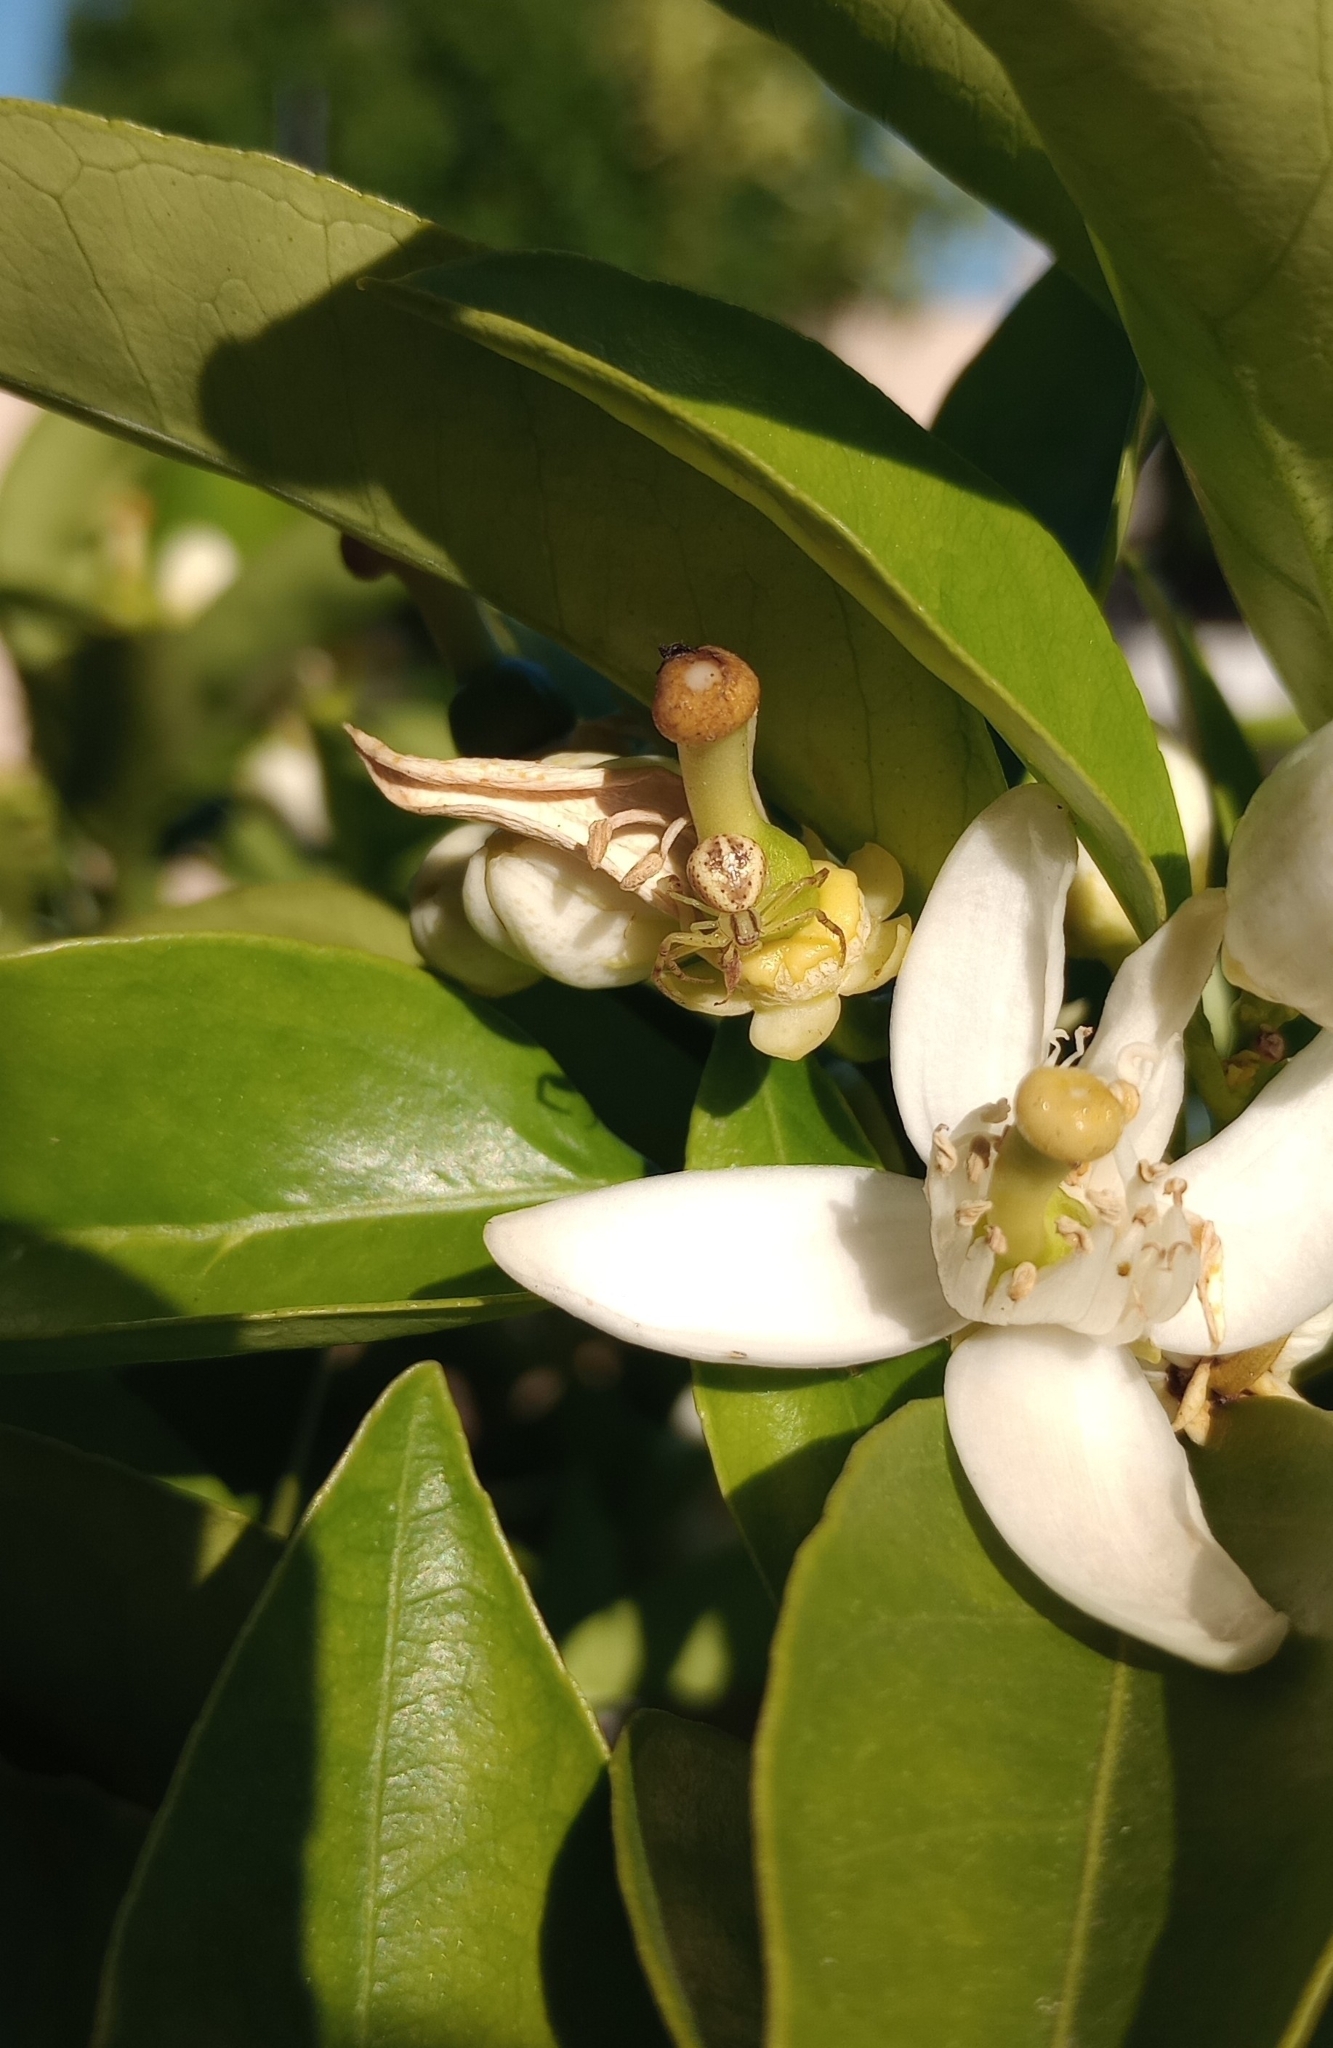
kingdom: Animalia
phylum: Arthropoda
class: Arachnida
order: Araneae
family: Thomisidae
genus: Misumenops
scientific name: Misumenops
